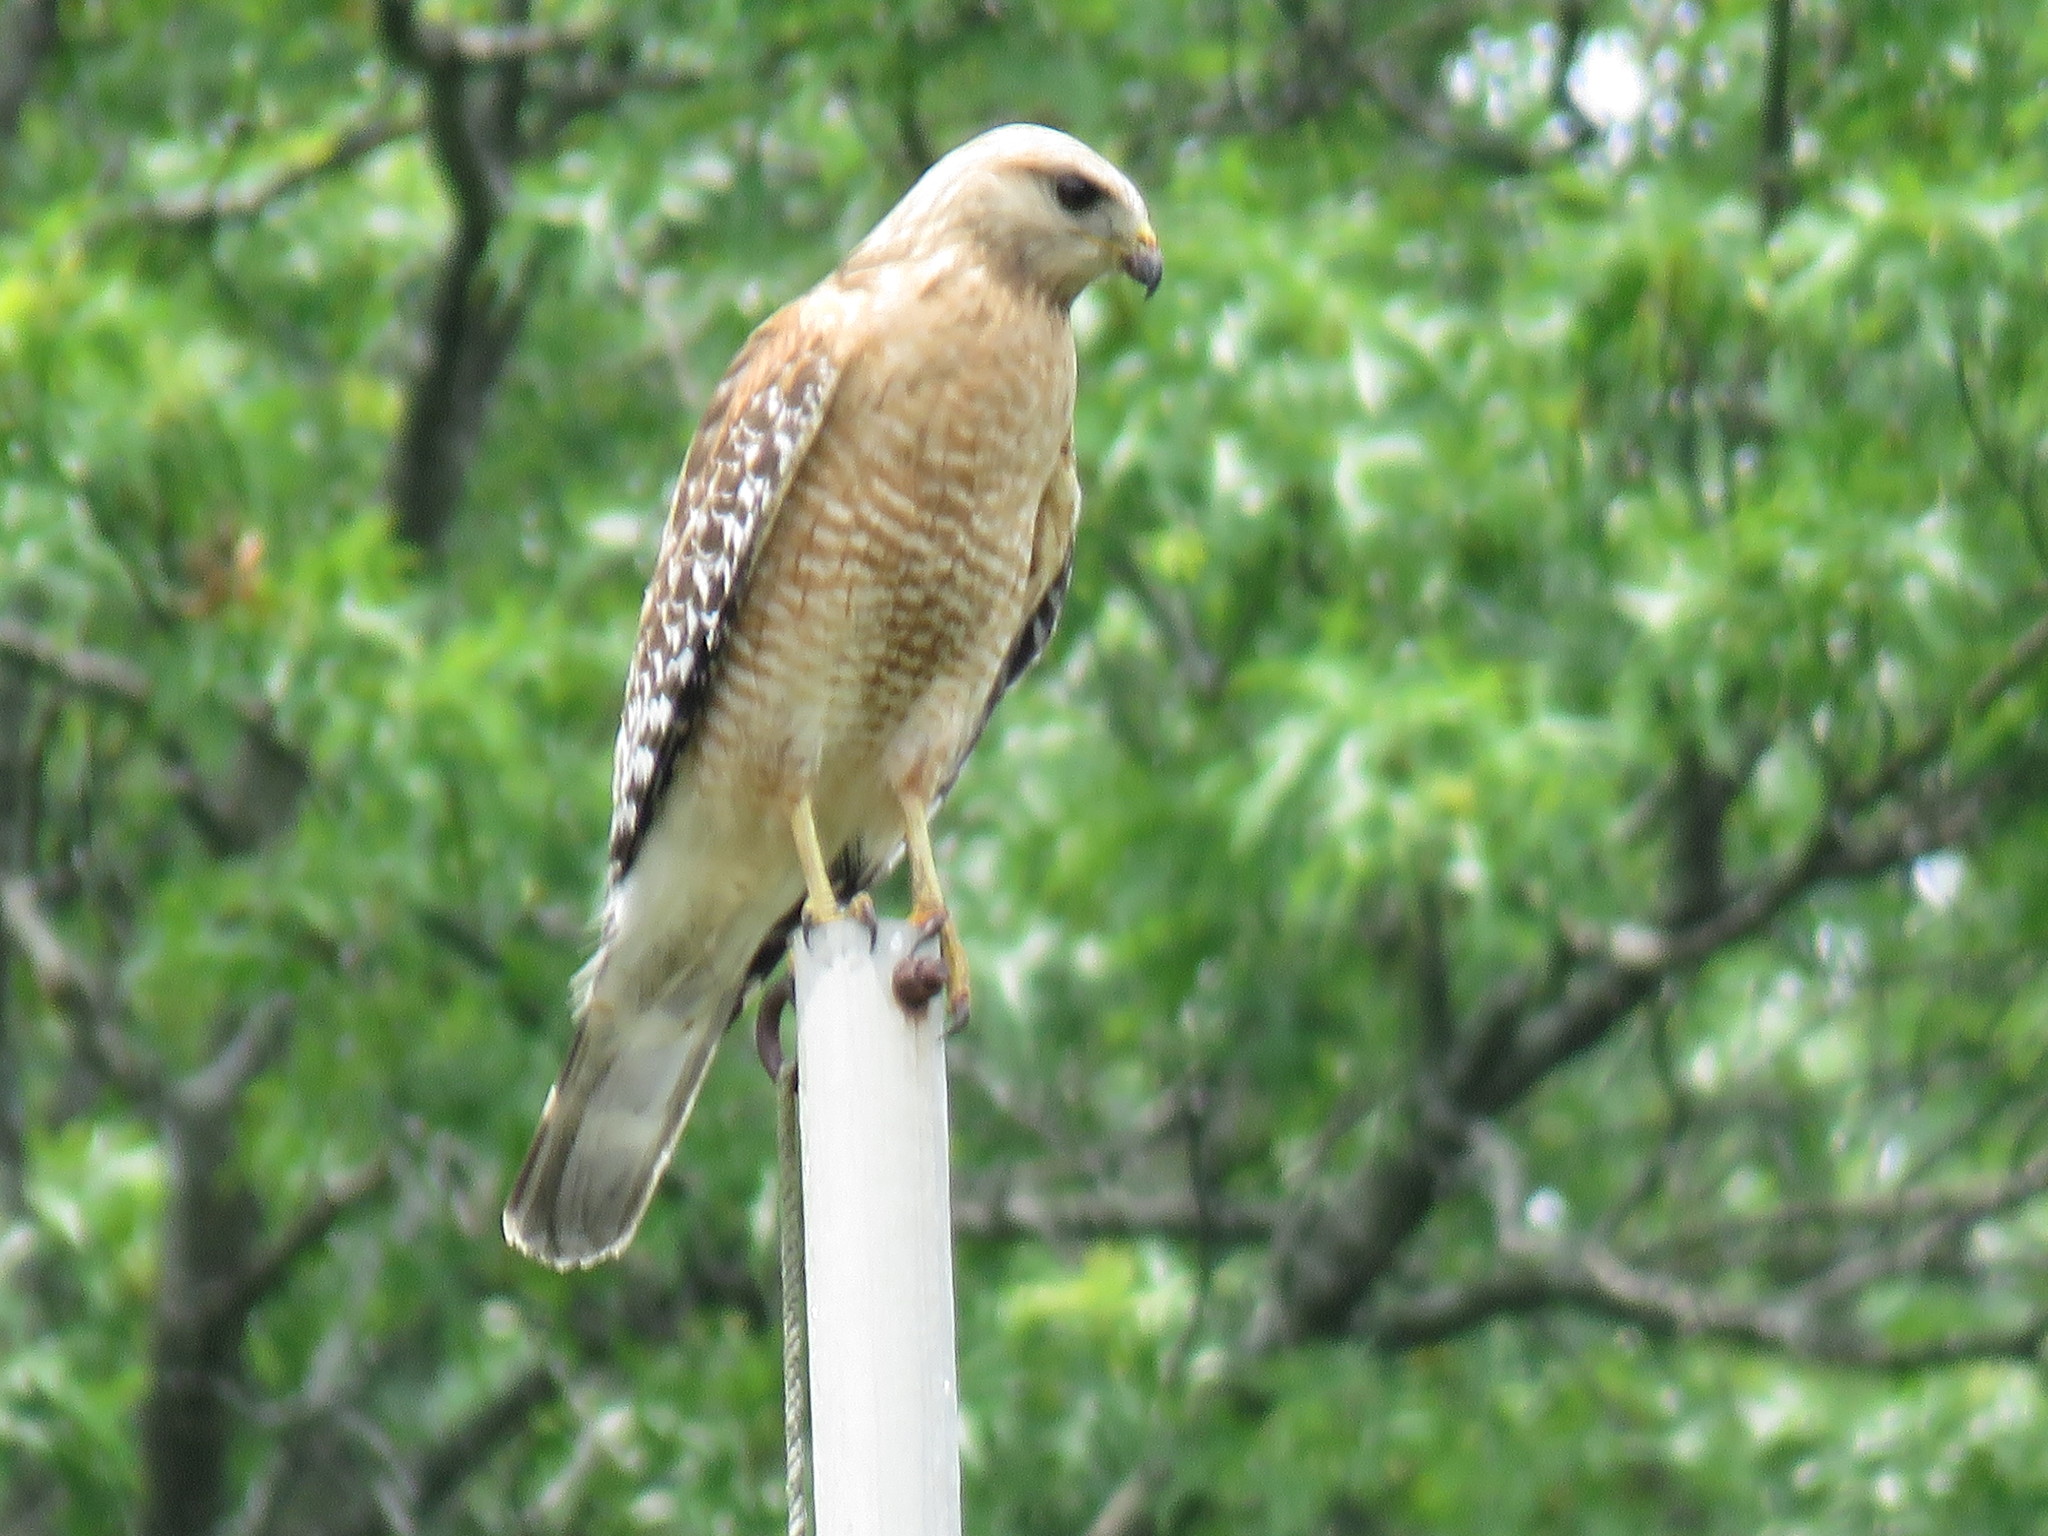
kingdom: Animalia
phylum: Chordata
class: Aves
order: Accipitriformes
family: Accipitridae
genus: Buteo
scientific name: Buteo lineatus
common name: Red-shouldered hawk
